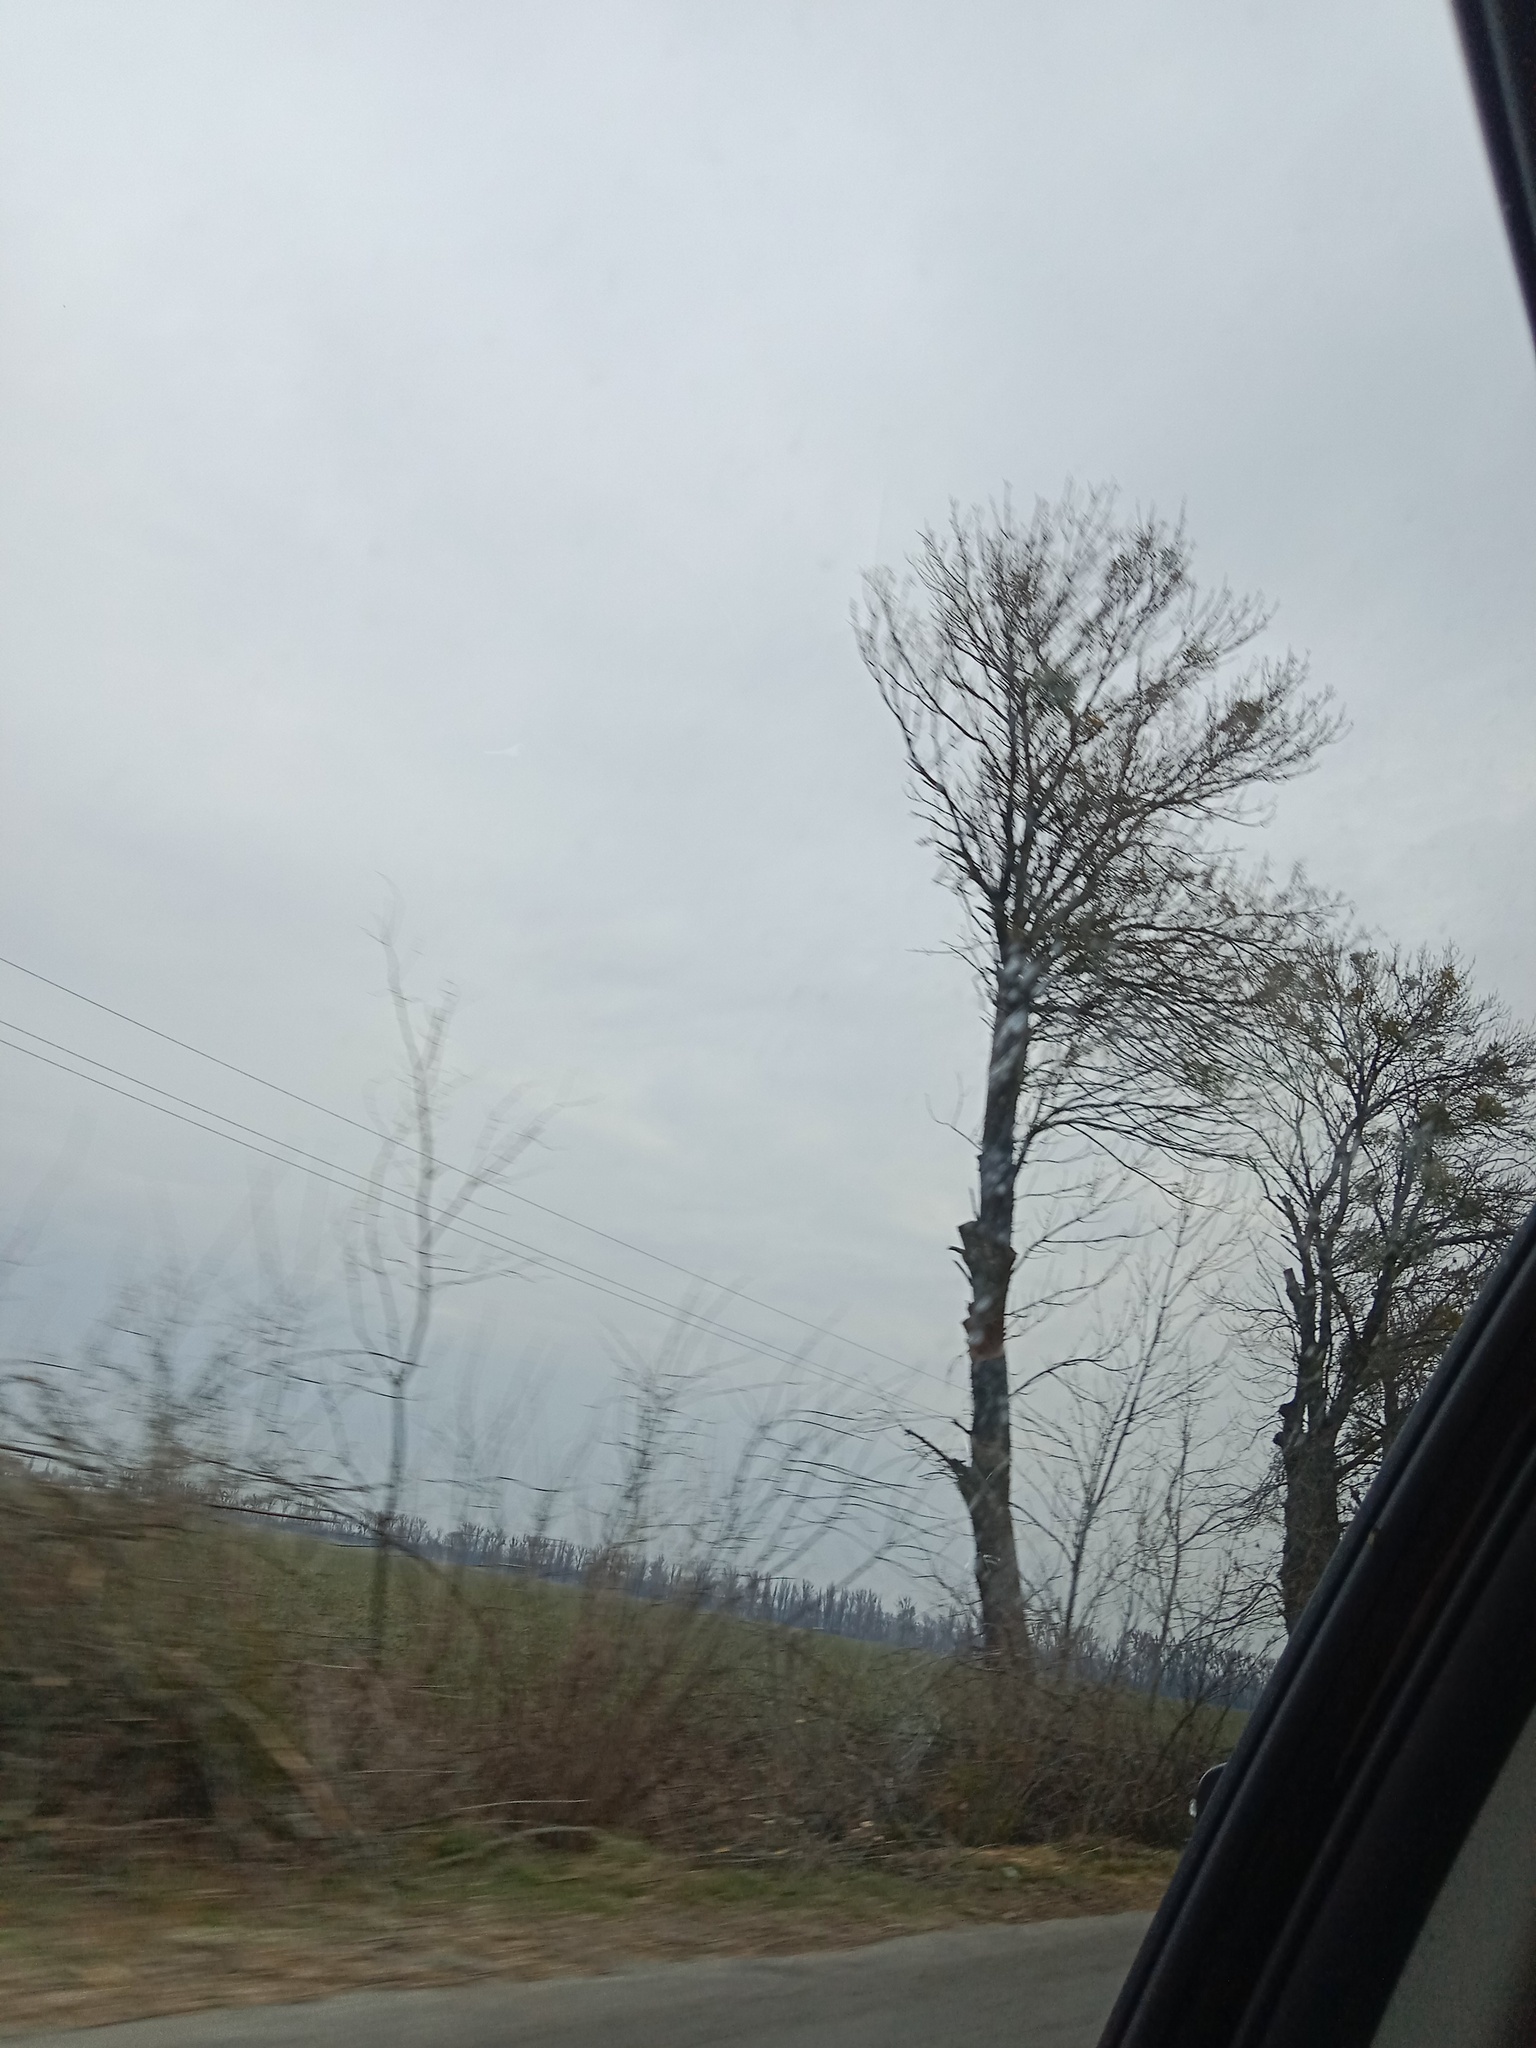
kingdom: Plantae
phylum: Tracheophyta
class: Magnoliopsida
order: Santalales
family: Viscaceae
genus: Viscum
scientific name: Viscum album
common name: Mistletoe
